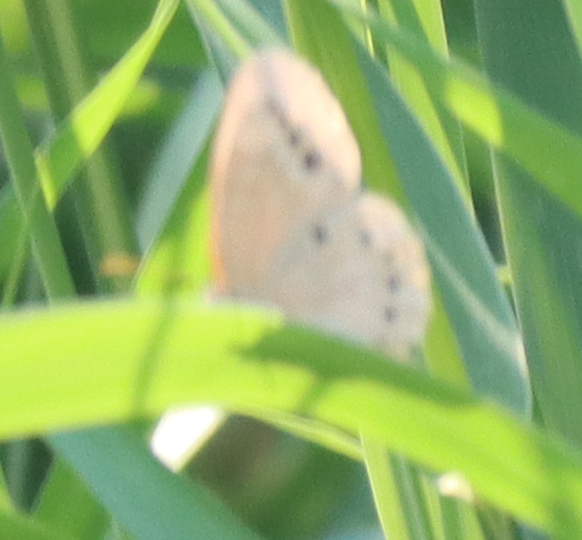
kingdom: Animalia
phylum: Arthropoda
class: Insecta
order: Lepidoptera
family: Nymphalidae
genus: Lethe
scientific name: Lethe eurydice
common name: Eyed brown
